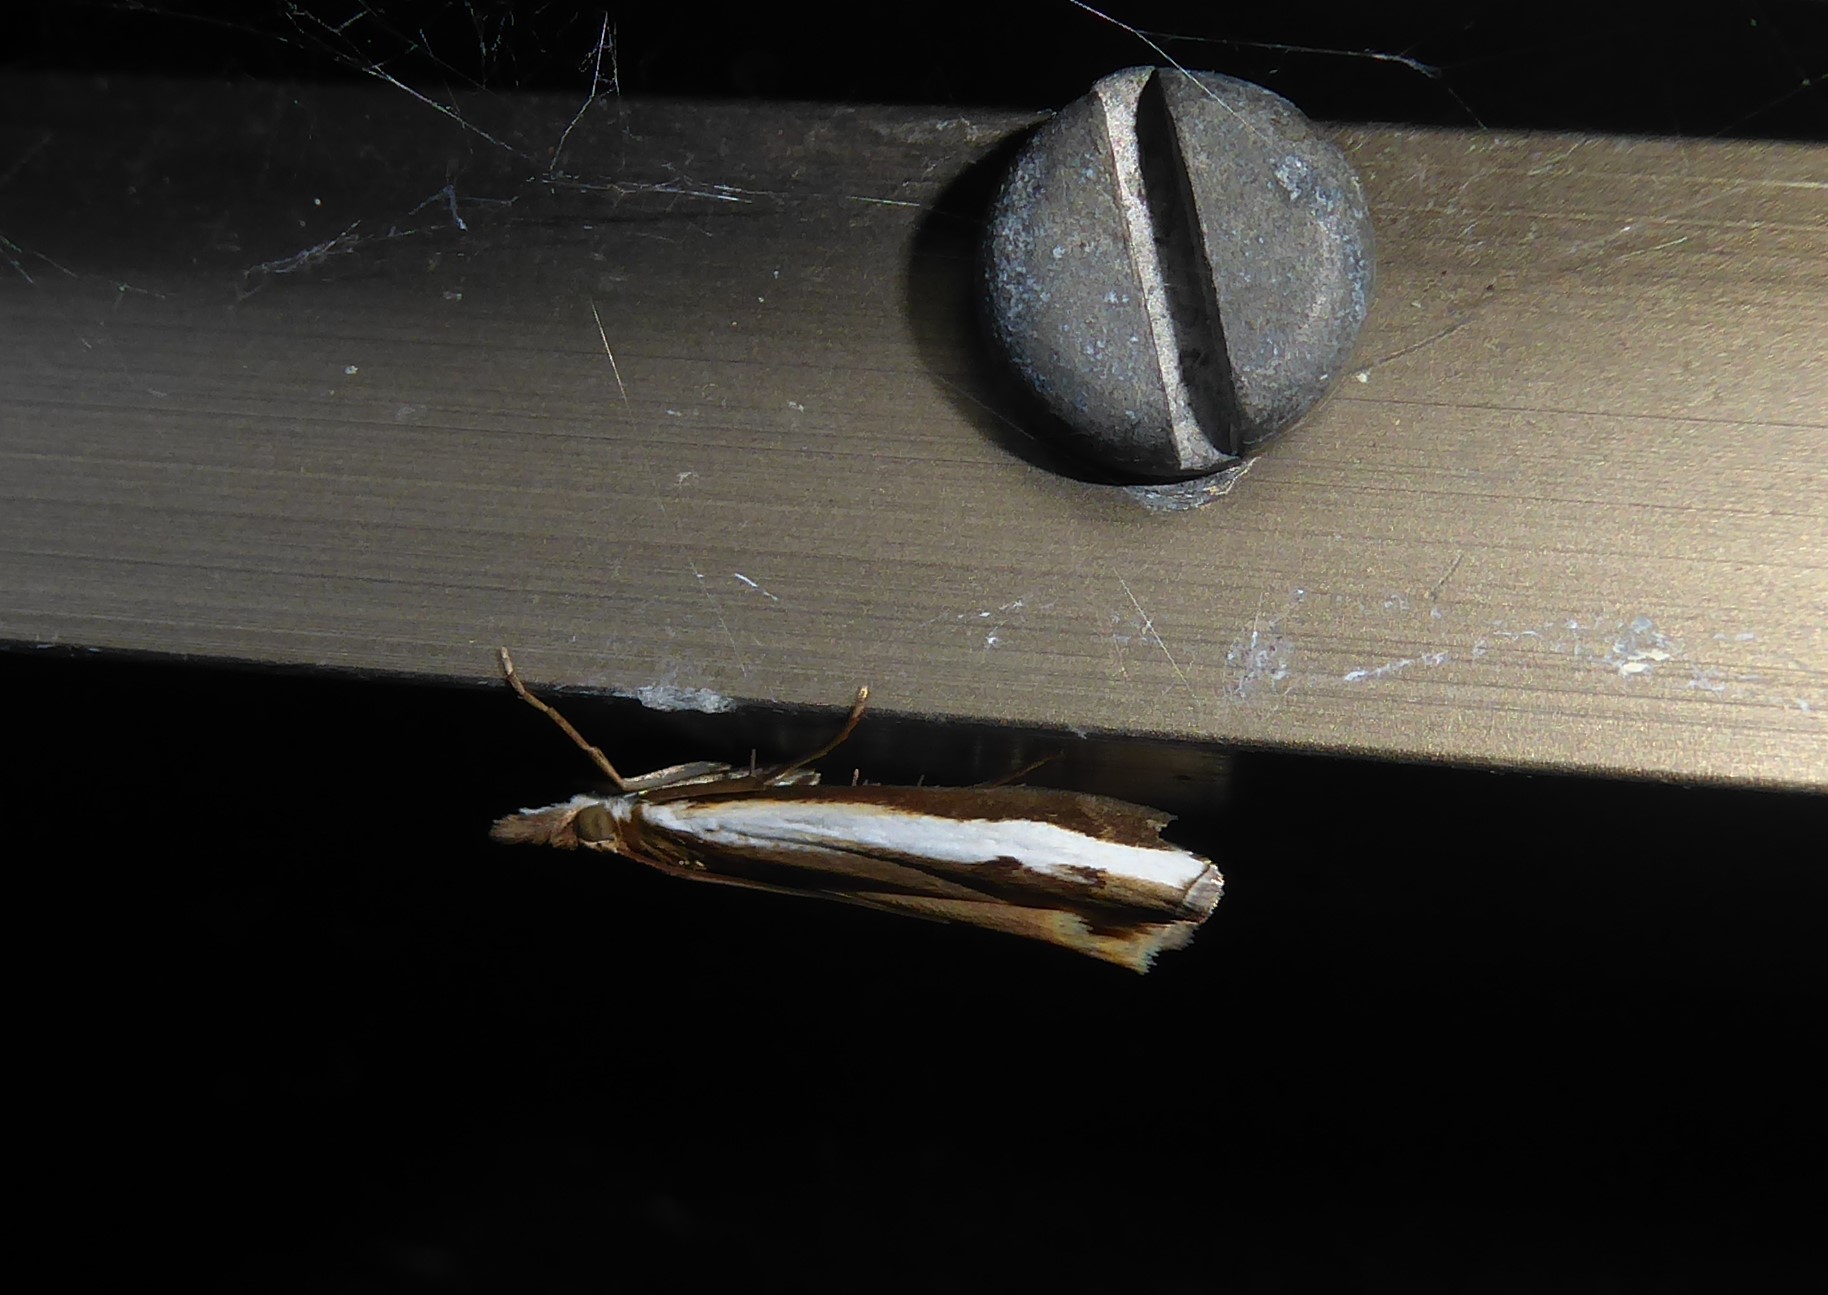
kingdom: Animalia
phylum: Arthropoda
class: Insecta
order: Lepidoptera
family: Crambidae
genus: Orocrambus
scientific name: Orocrambus flexuosellus
